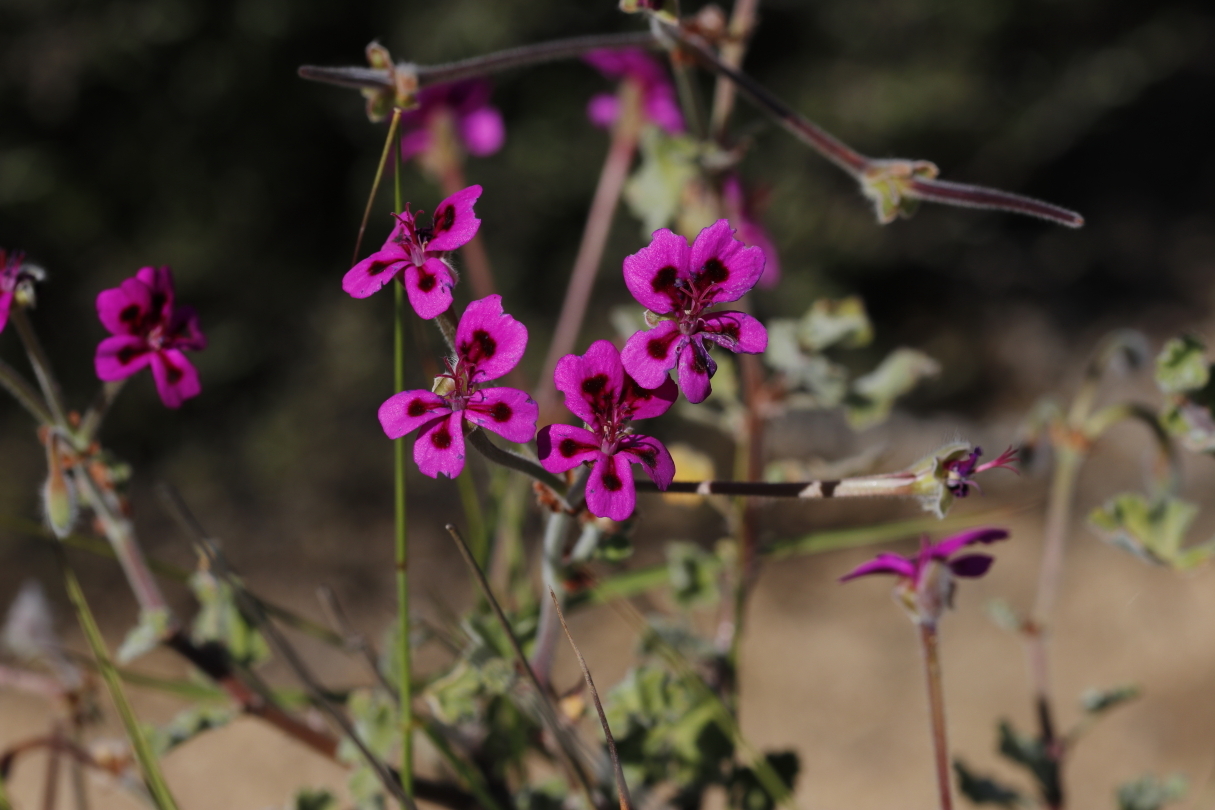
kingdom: Plantae
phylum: Tracheophyta
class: Magnoliopsida
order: Geraniales
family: Geraniaceae
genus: Pelargonium
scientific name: Pelargonium magenteum
